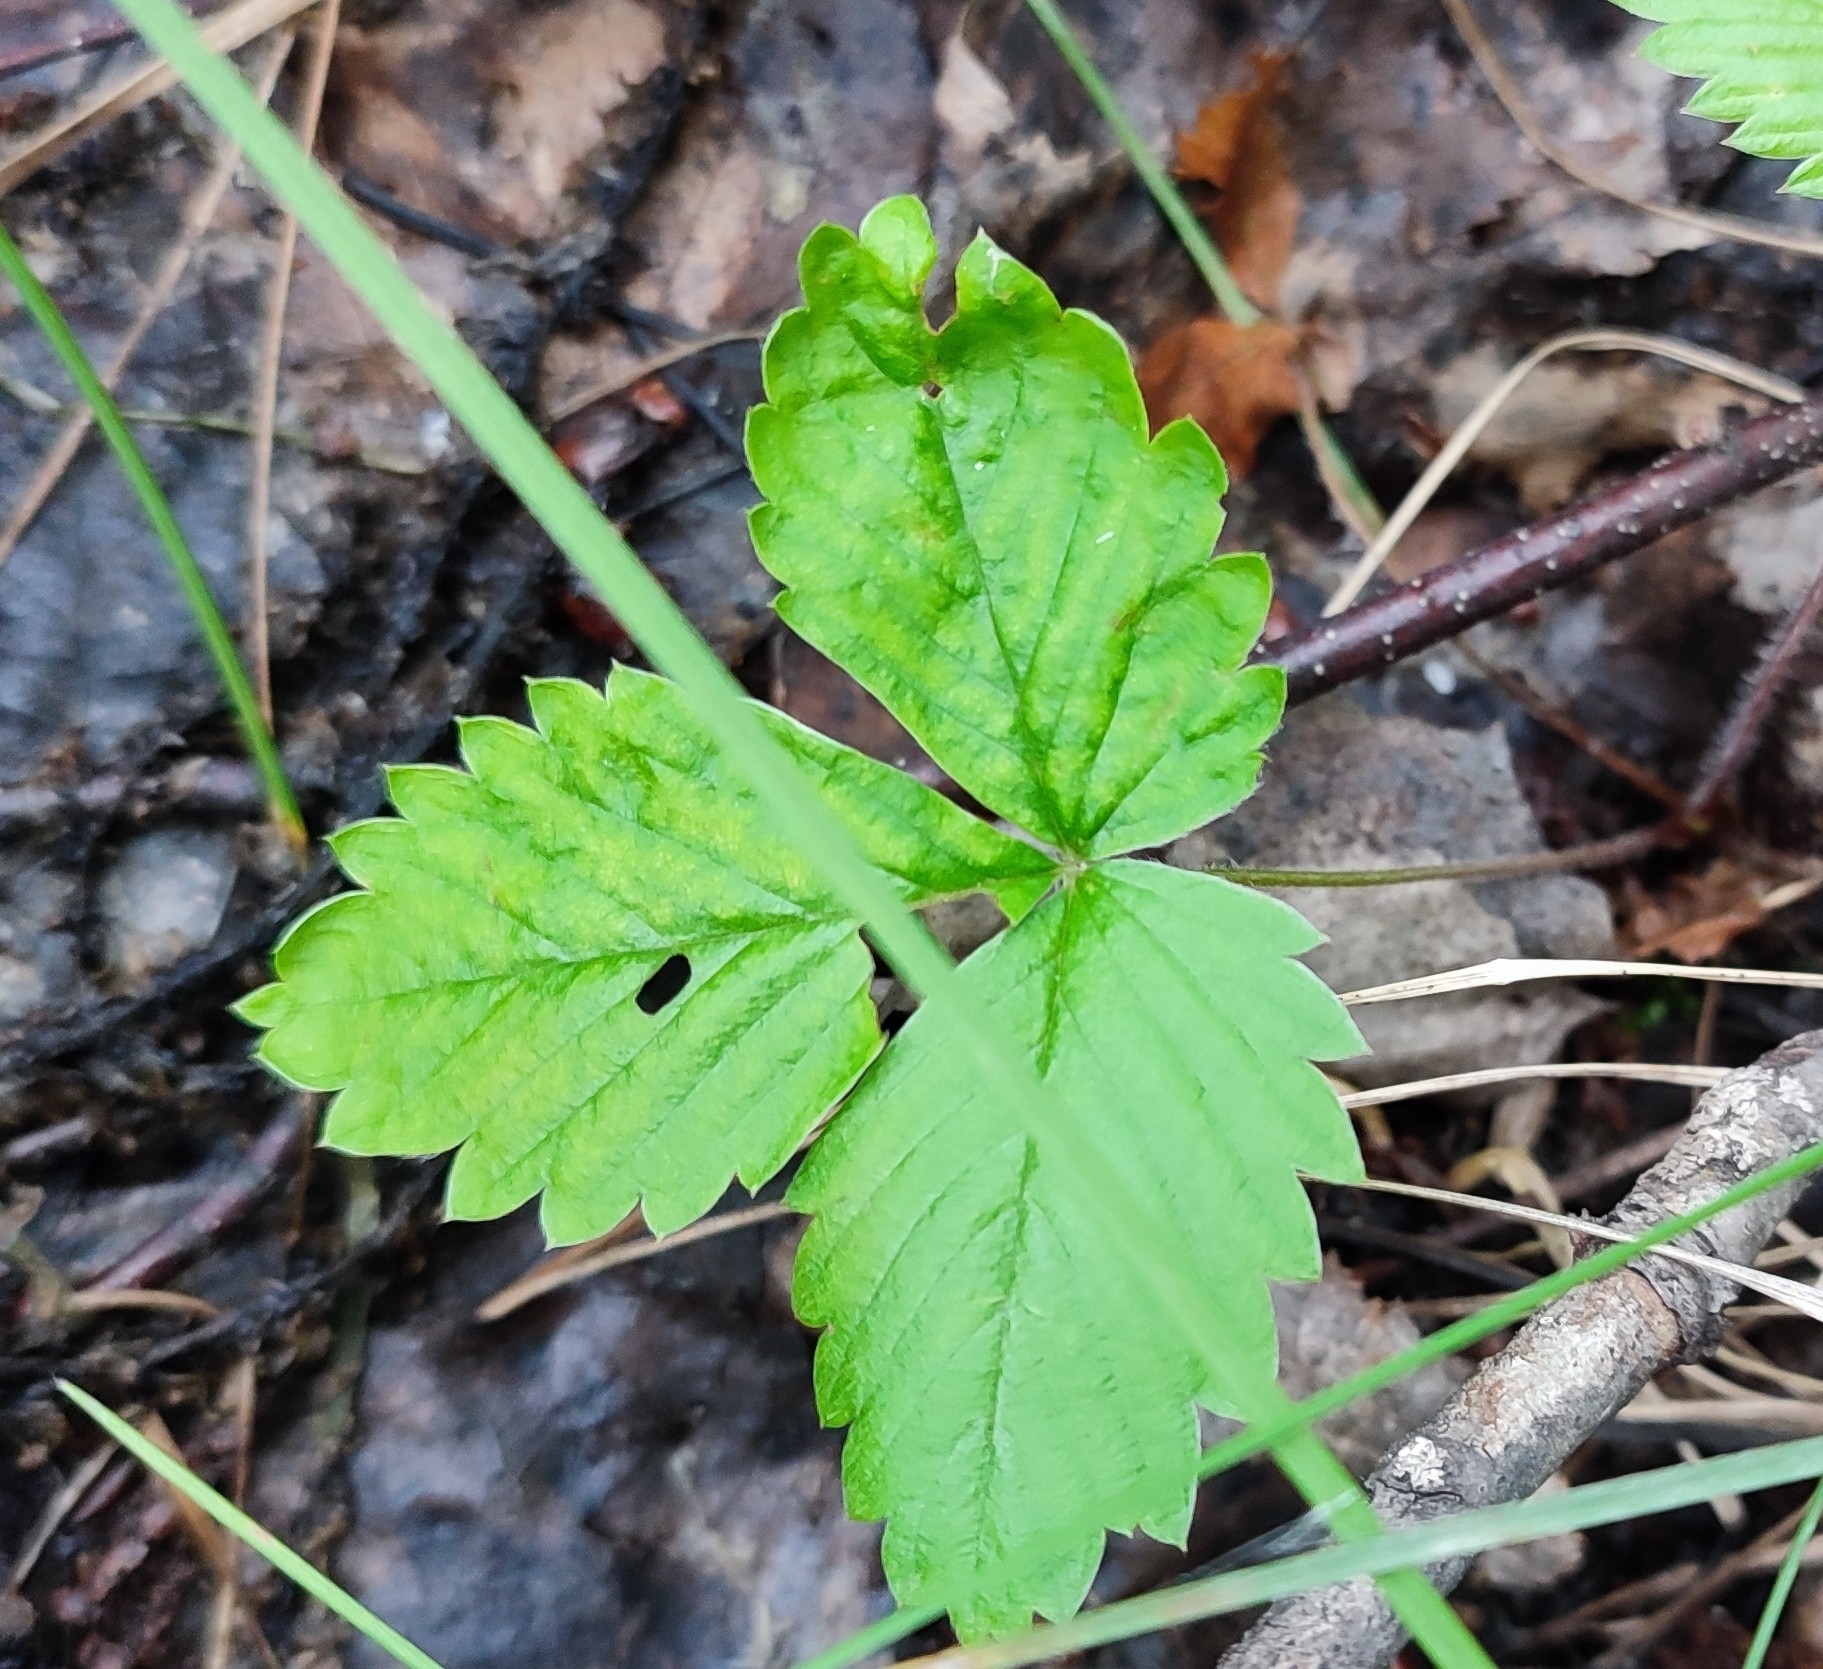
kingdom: Plantae
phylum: Tracheophyta
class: Magnoliopsida
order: Rosales
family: Rosaceae
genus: Fragaria
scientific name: Fragaria vesca
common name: Wild strawberry
